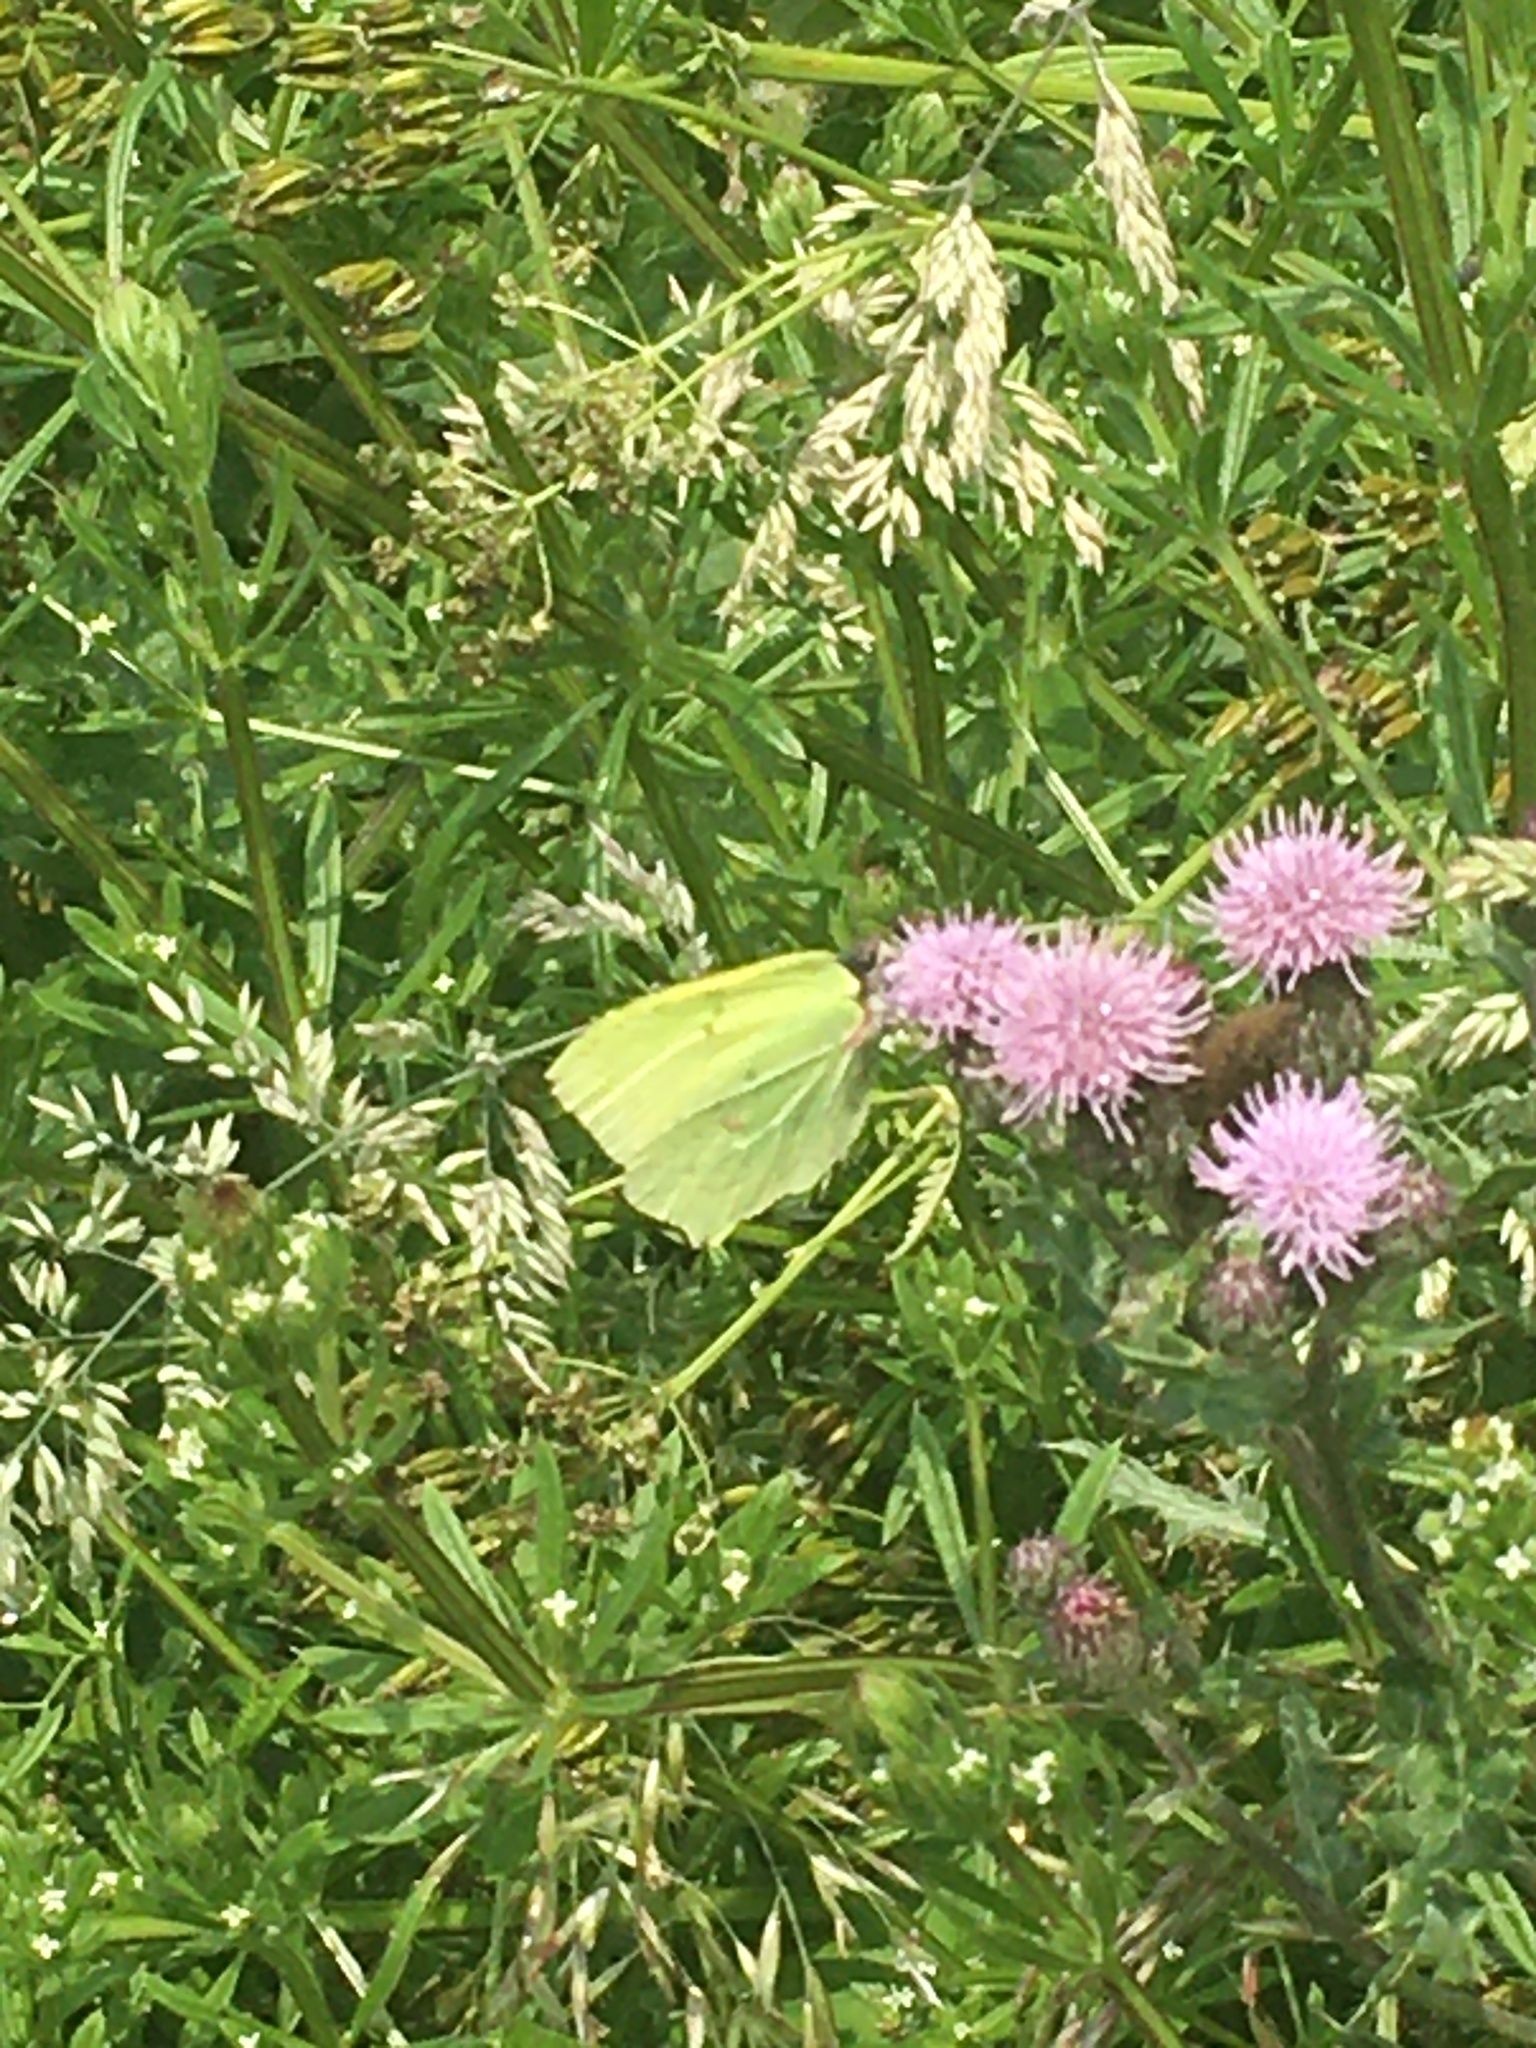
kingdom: Animalia
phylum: Arthropoda
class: Insecta
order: Lepidoptera
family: Pieridae
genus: Gonepteryx
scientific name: Gonepteryx rhamni
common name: Brimstone
